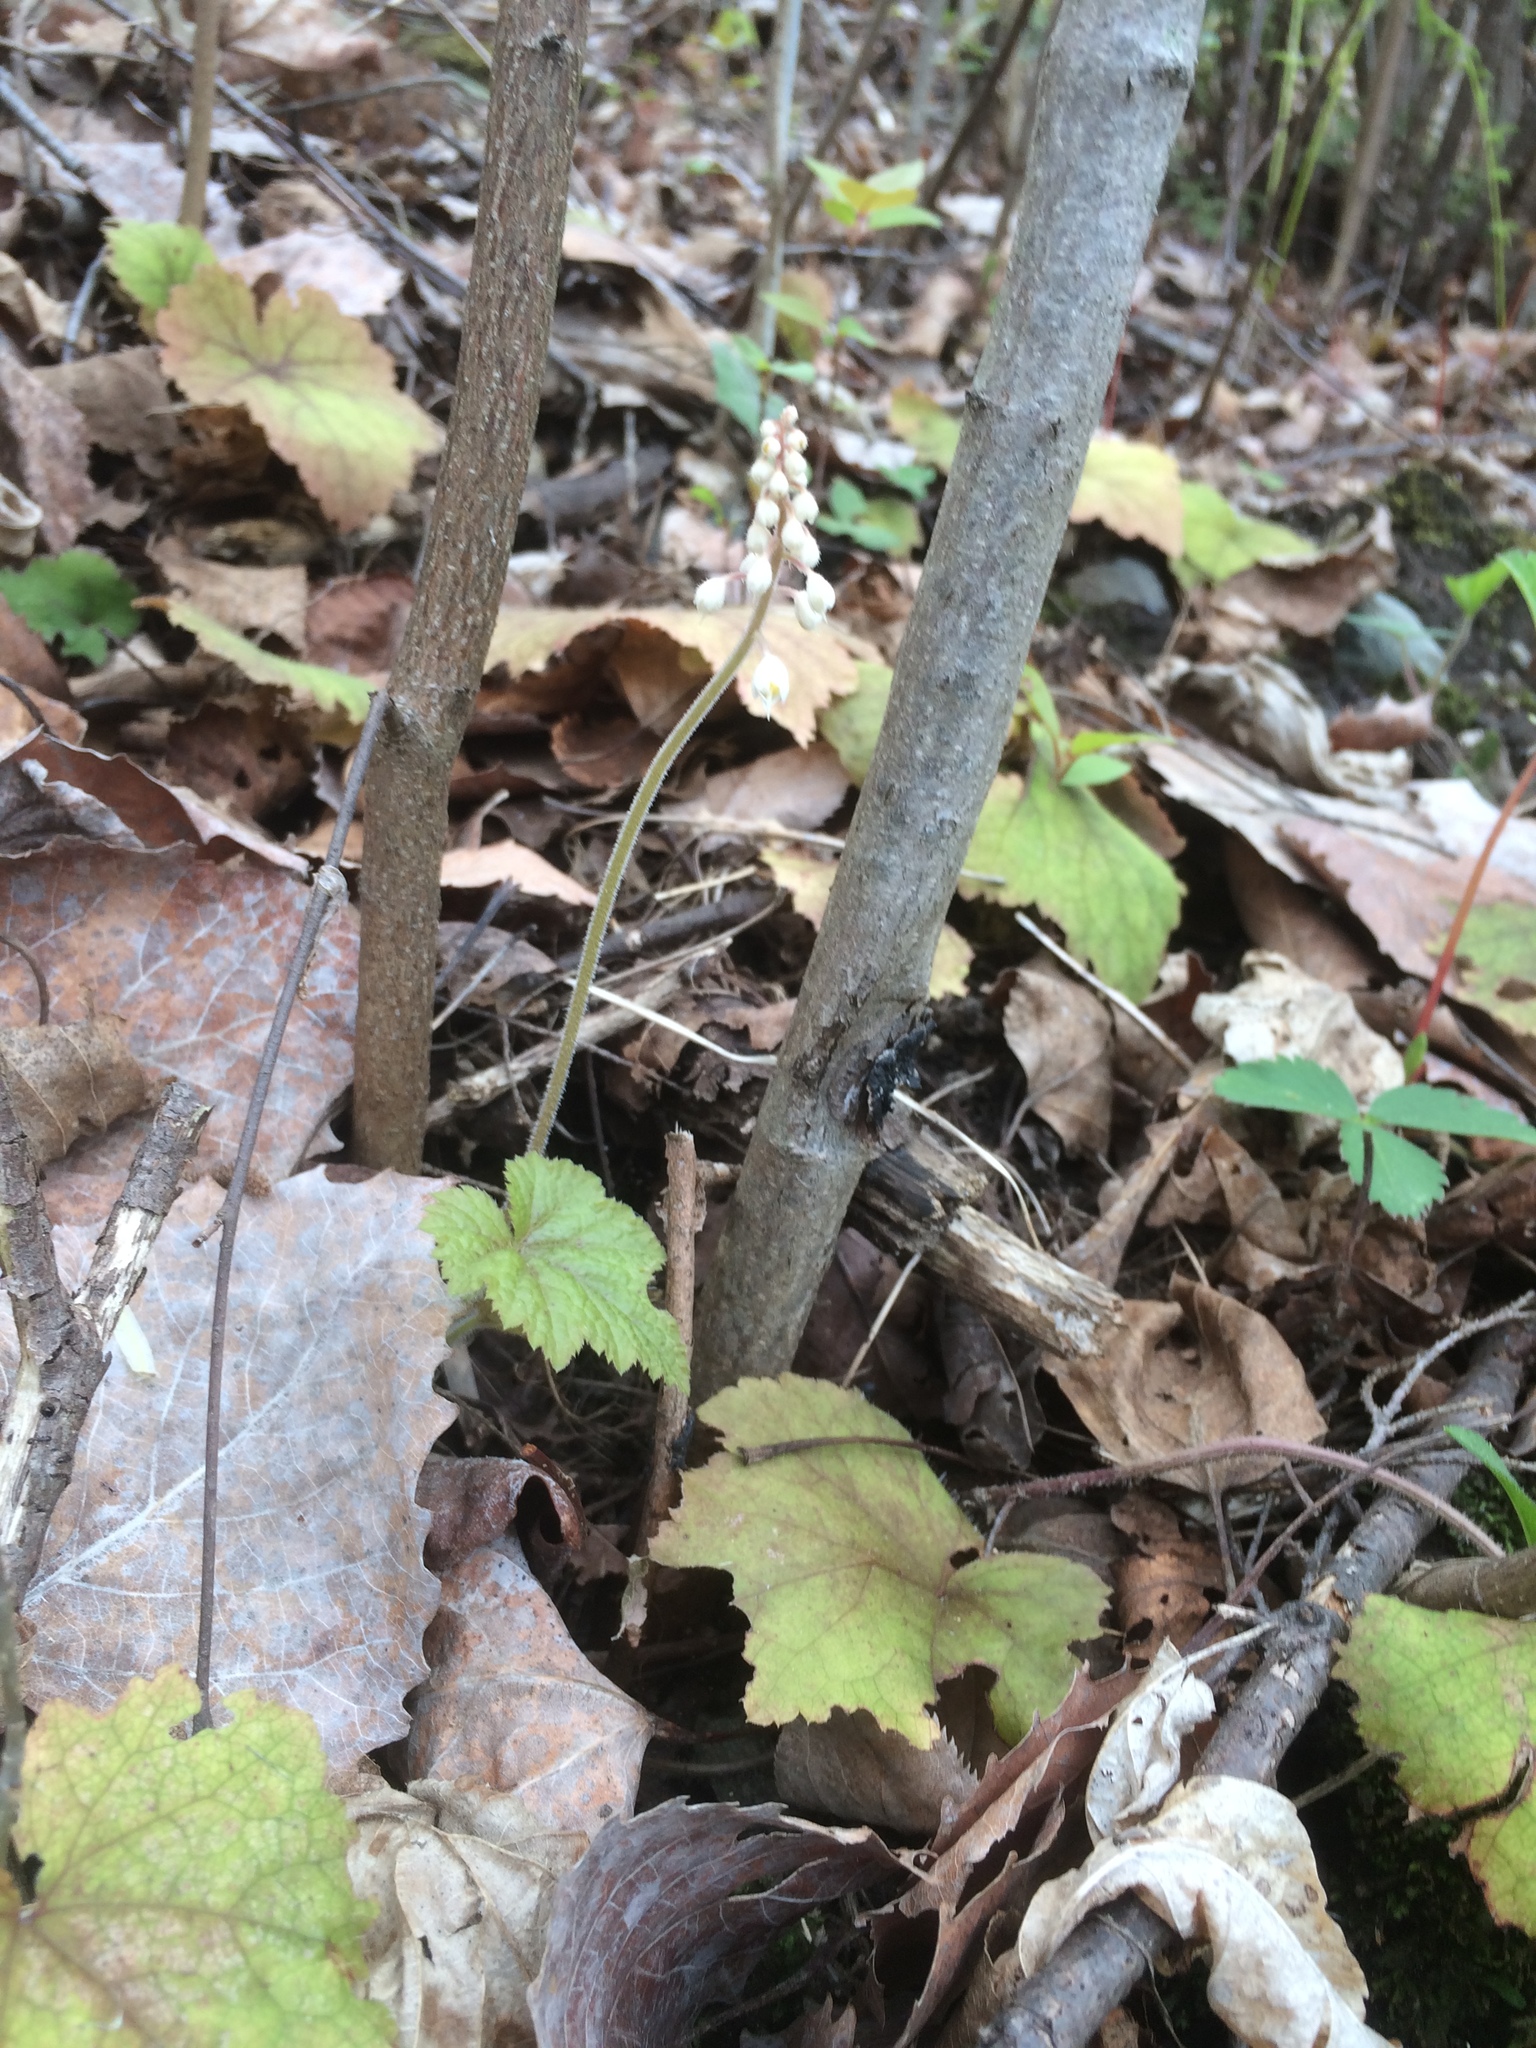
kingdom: Plantae
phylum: Tracheophyta
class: Magnoliopsida
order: Saxifragales
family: Saxifragaceae
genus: Tiarella
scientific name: Tiarella stolonifera
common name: Stoloniferous foamflower
